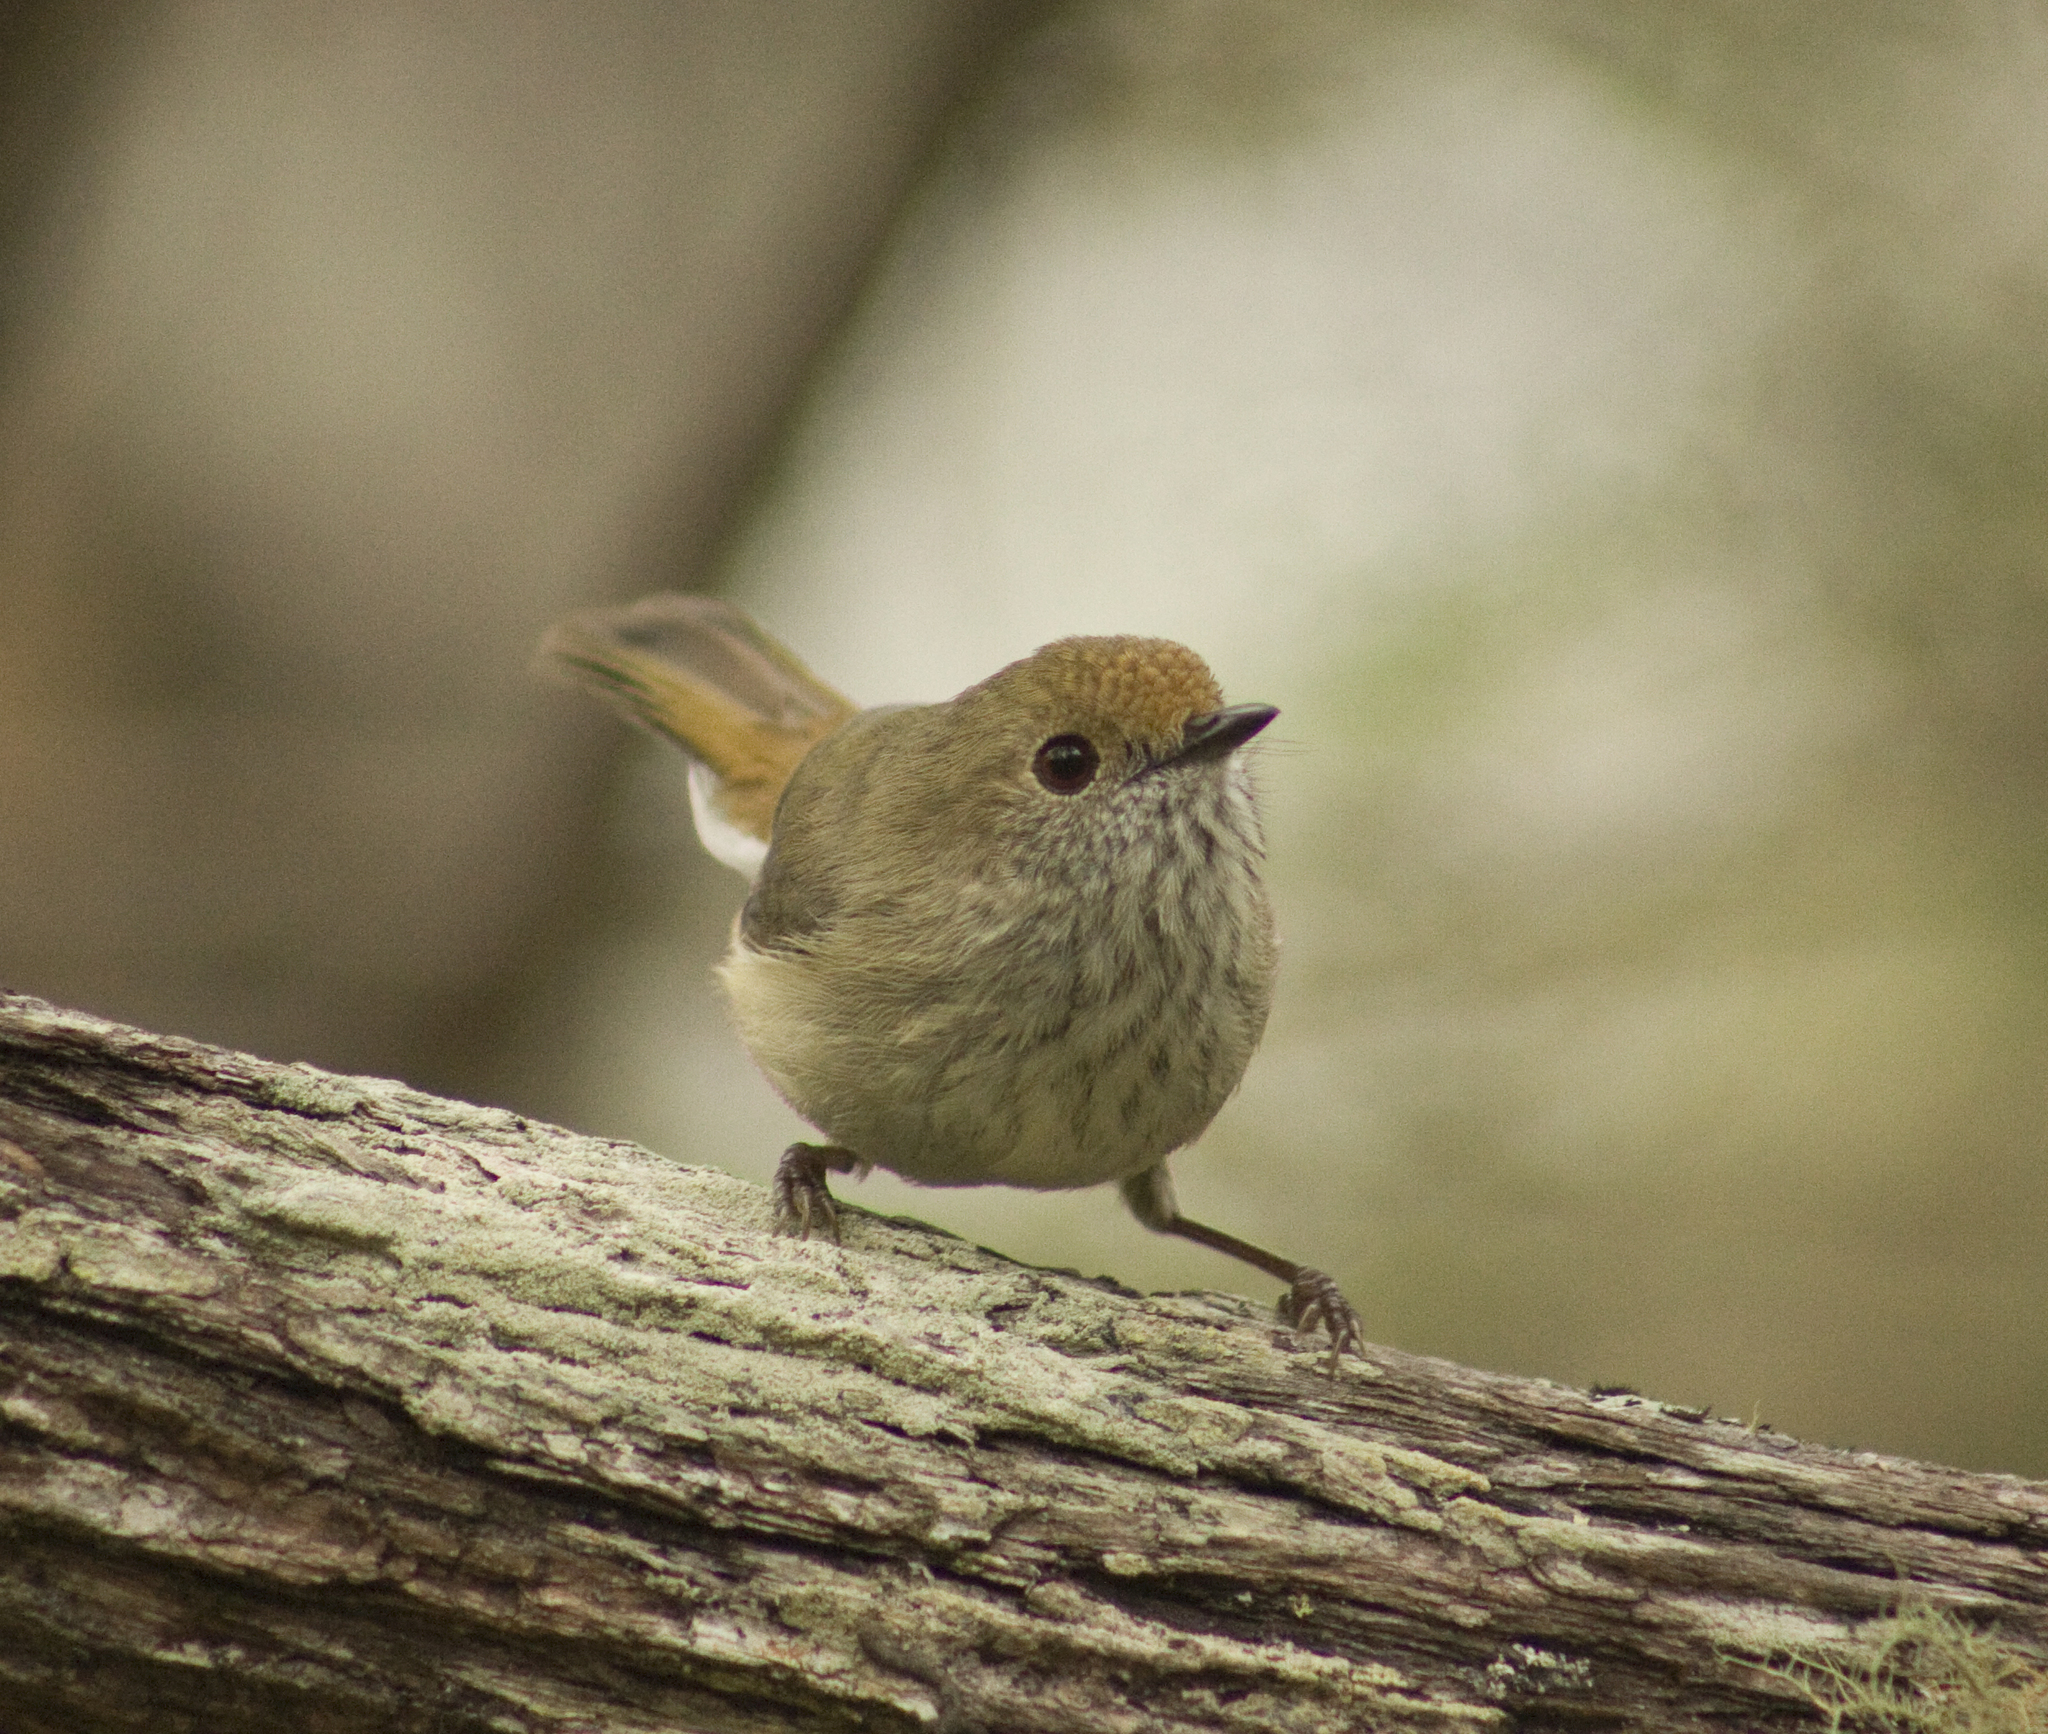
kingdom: Animalia
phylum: Chordata
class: Aves
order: Passeriformes
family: Acanthizidae
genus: Acanthiza
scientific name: Acanthiza pusilla
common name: Brown thornbill
